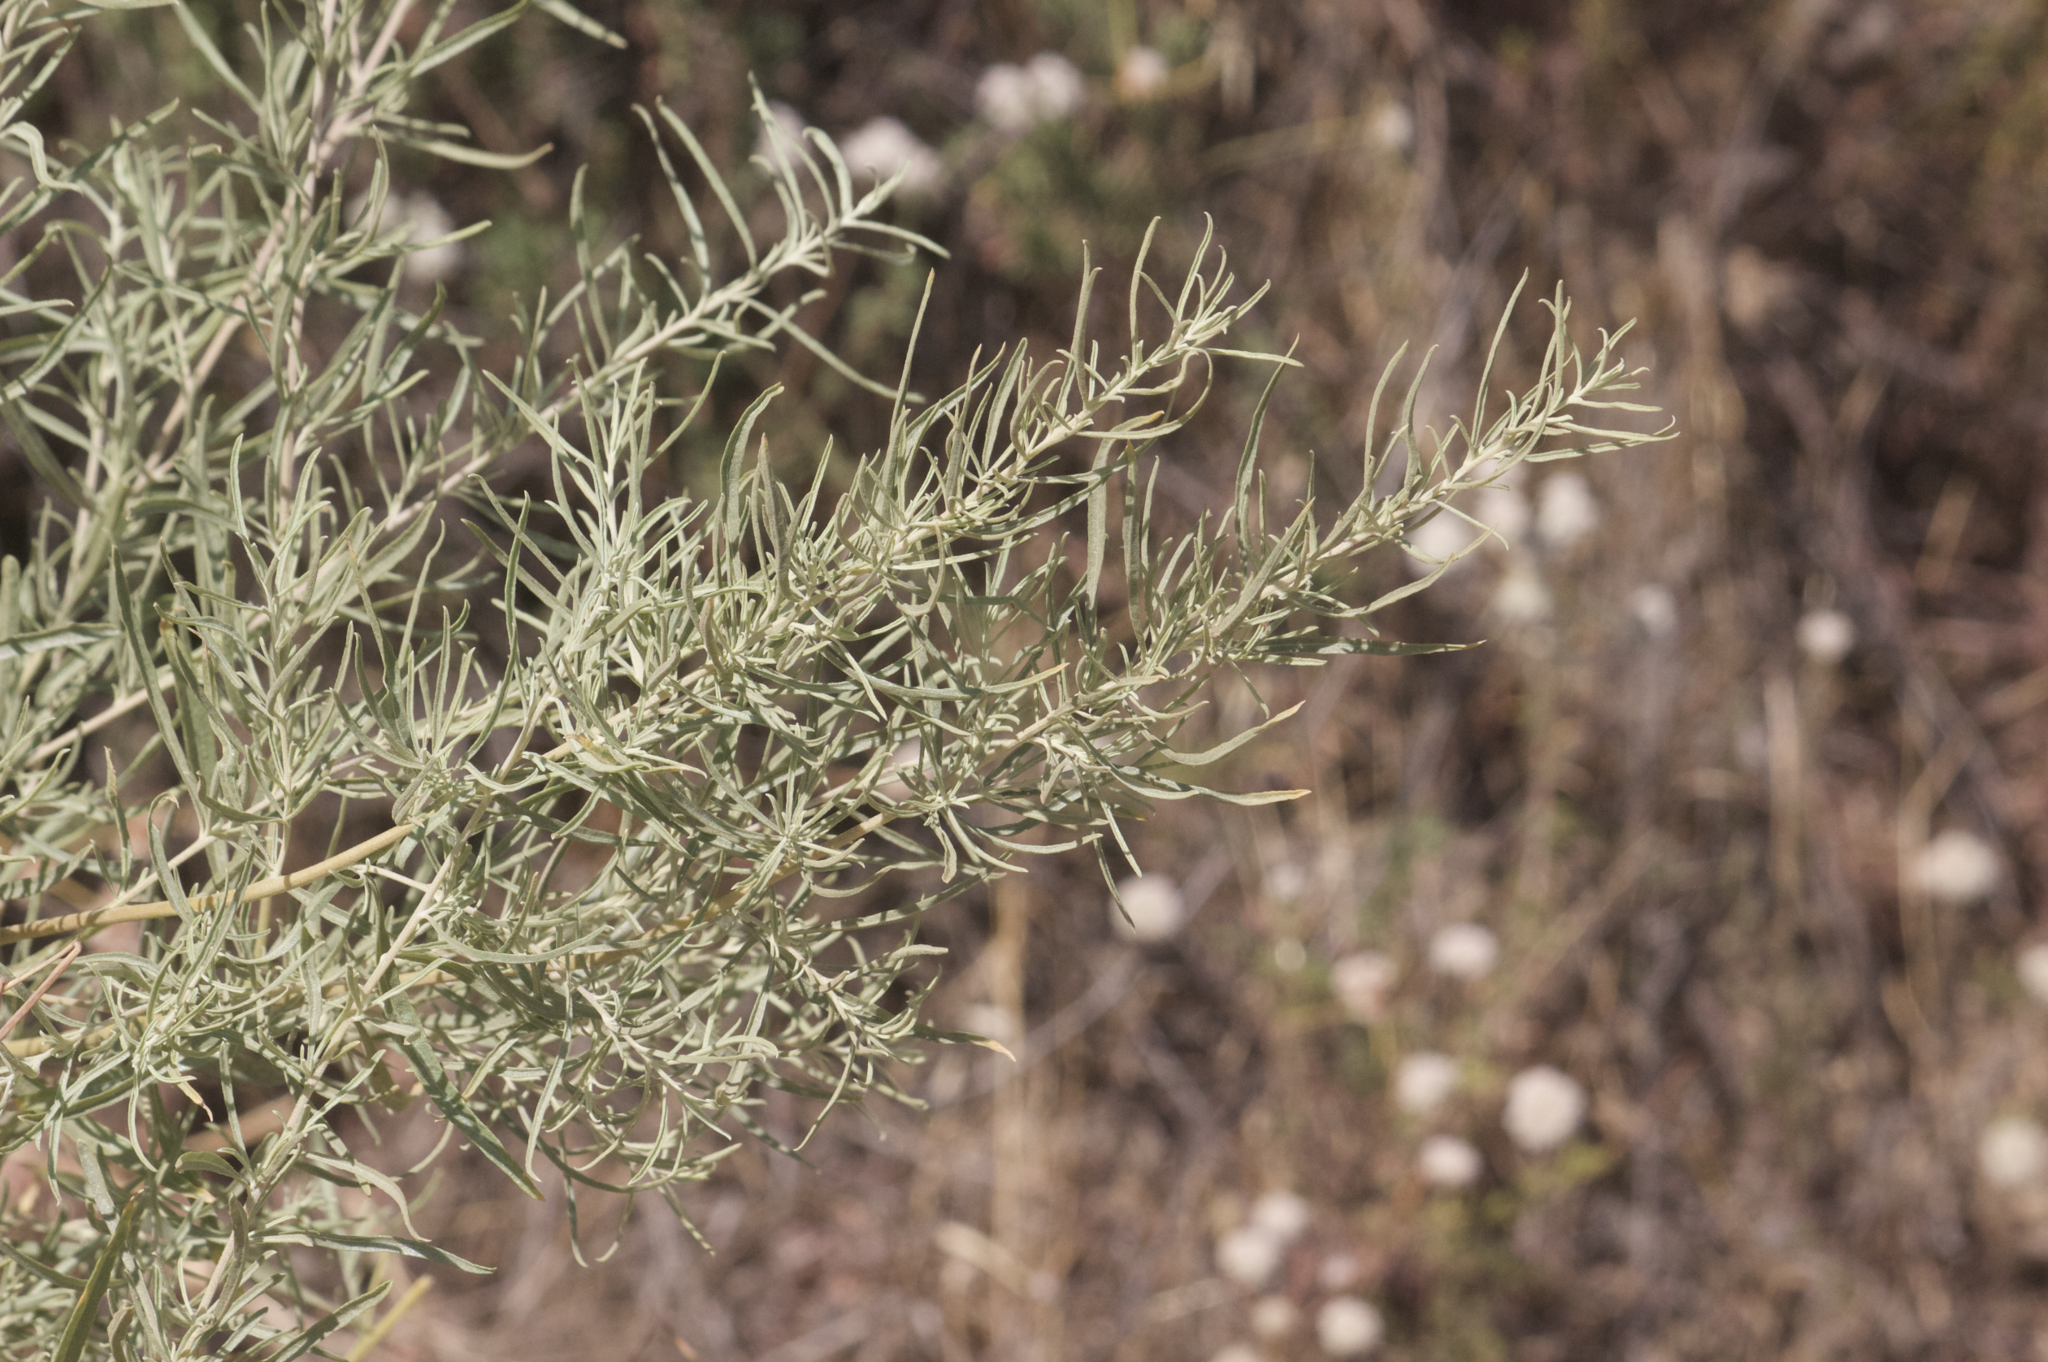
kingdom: Plantae
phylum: Tracheophyta
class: Magnoliopsida
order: Asterales
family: Asteraceae
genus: Artemisia
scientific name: Artemisia californica
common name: California sagebrush
